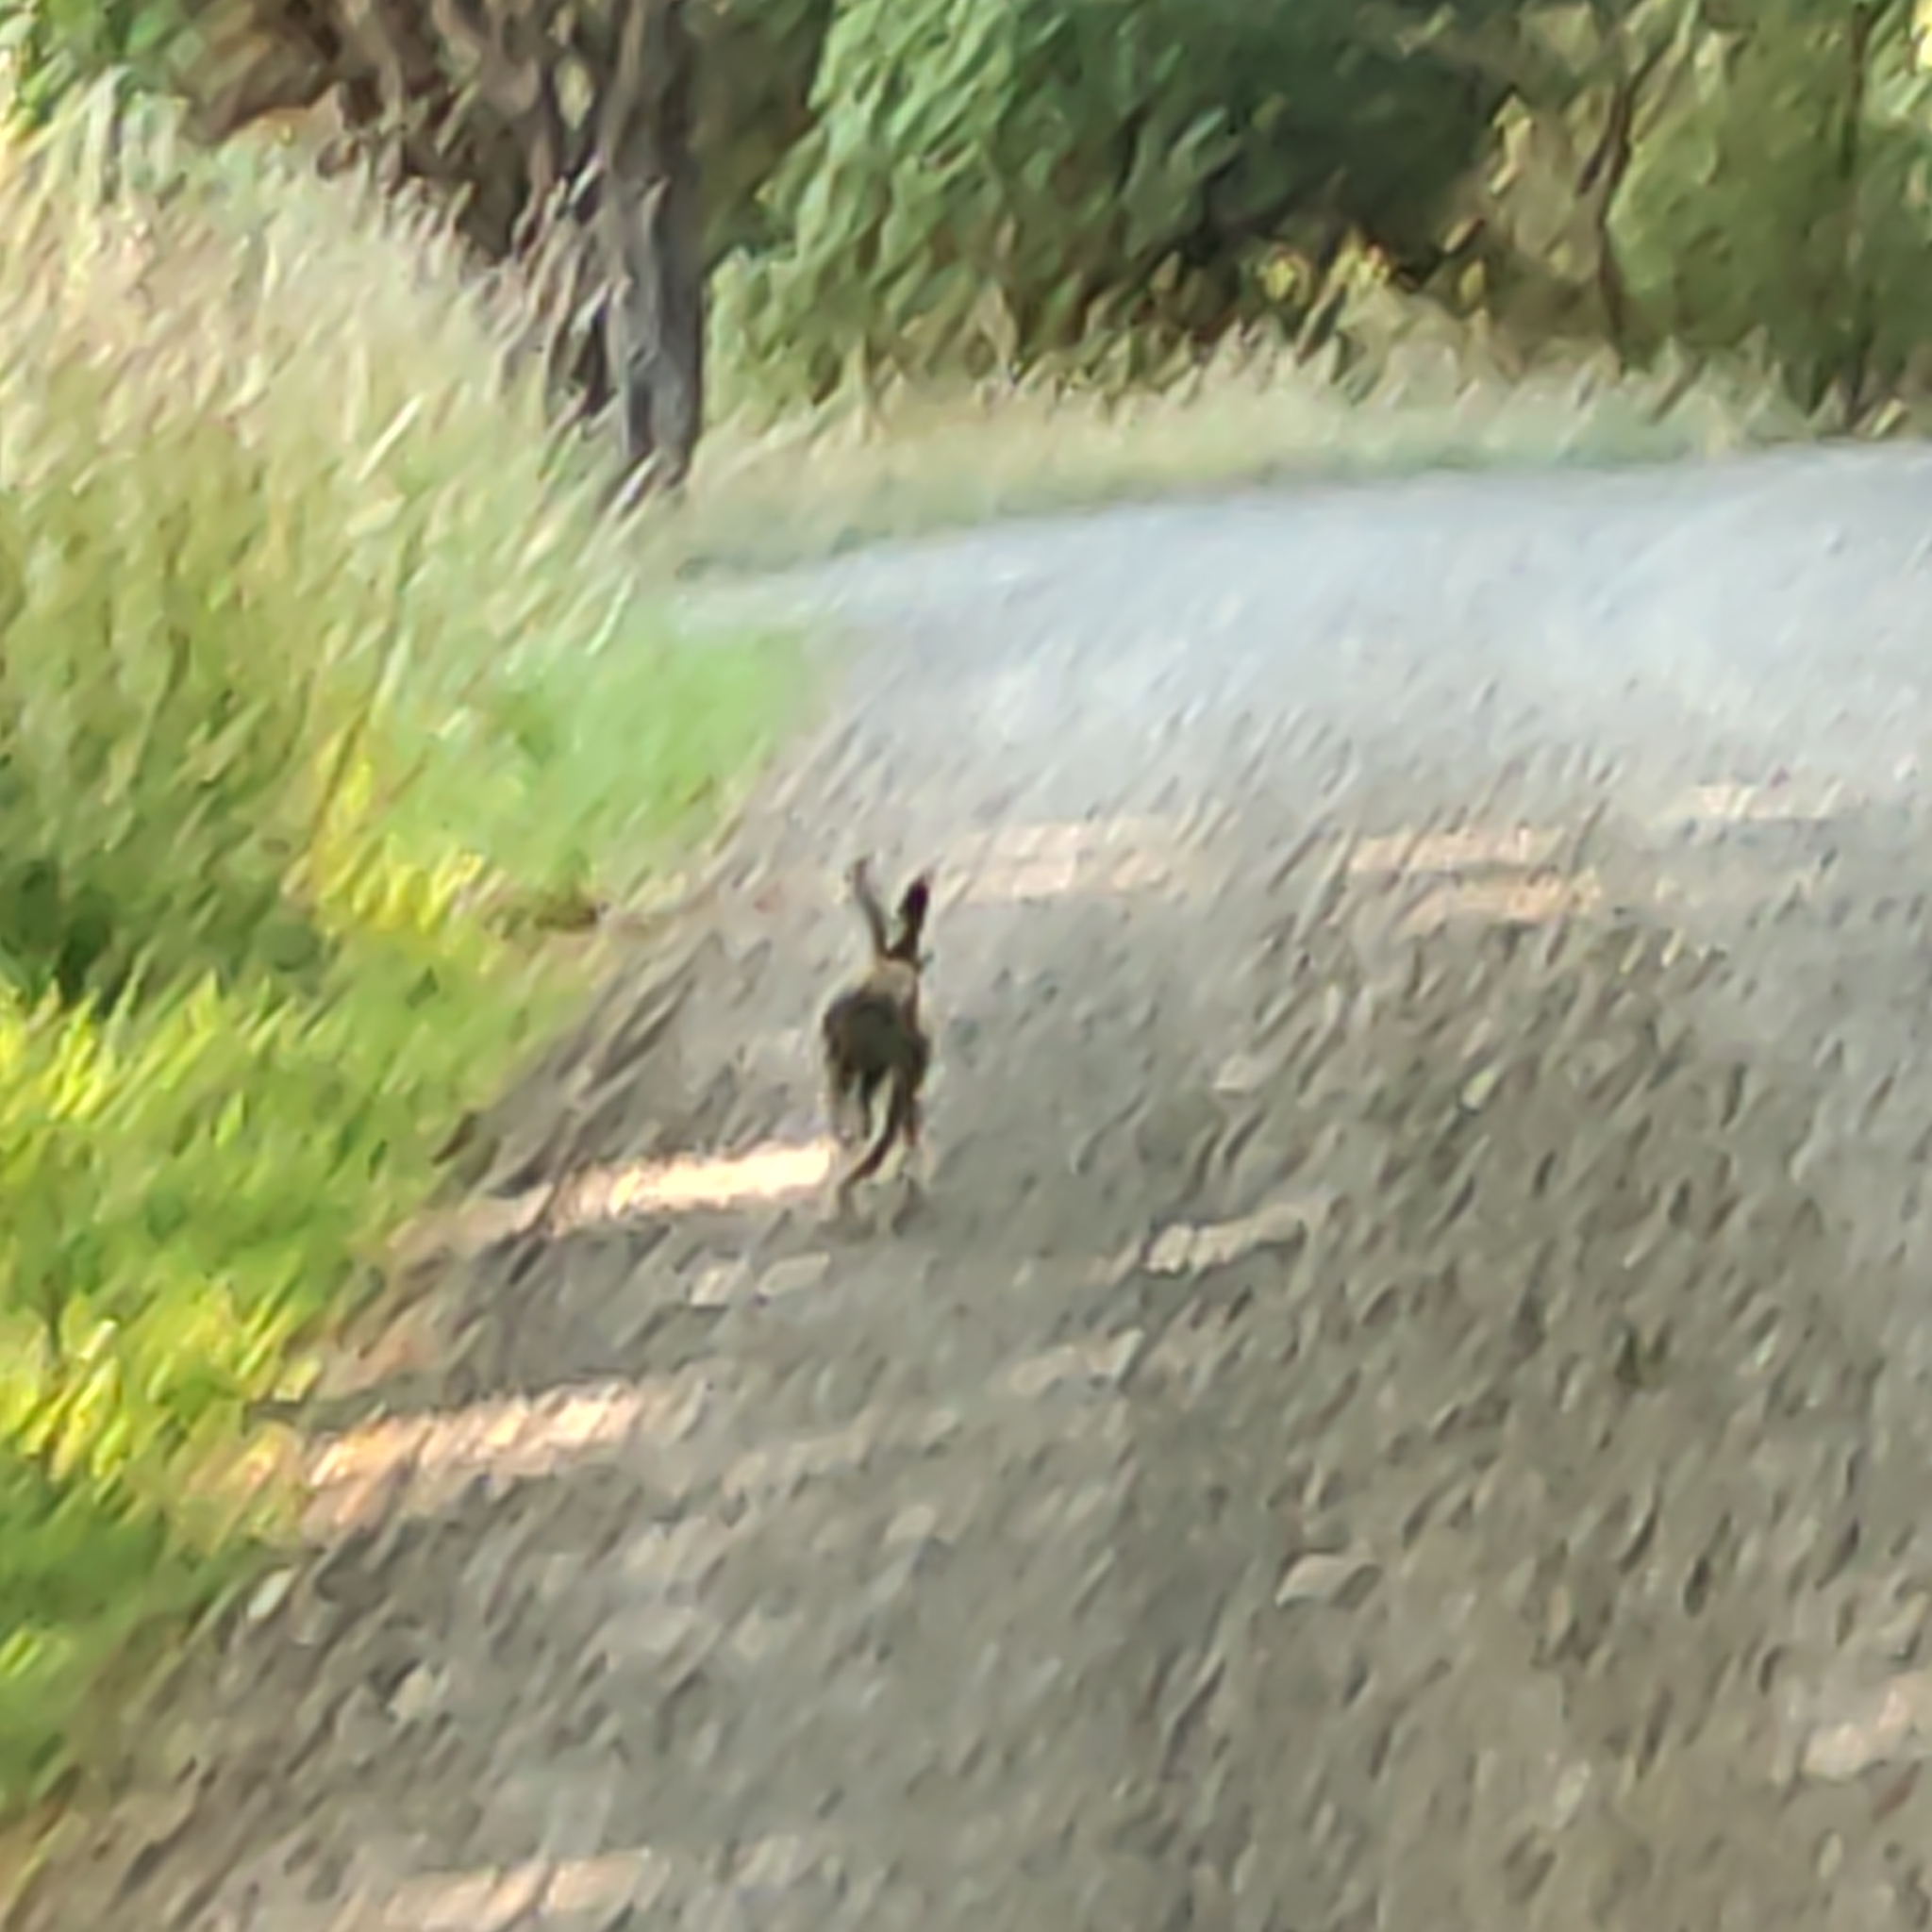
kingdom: Animalia
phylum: Chordata
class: Mammalia
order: Lagomorpha
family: Leporidae
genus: Lepus
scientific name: Lepus europaeus
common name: European hare
